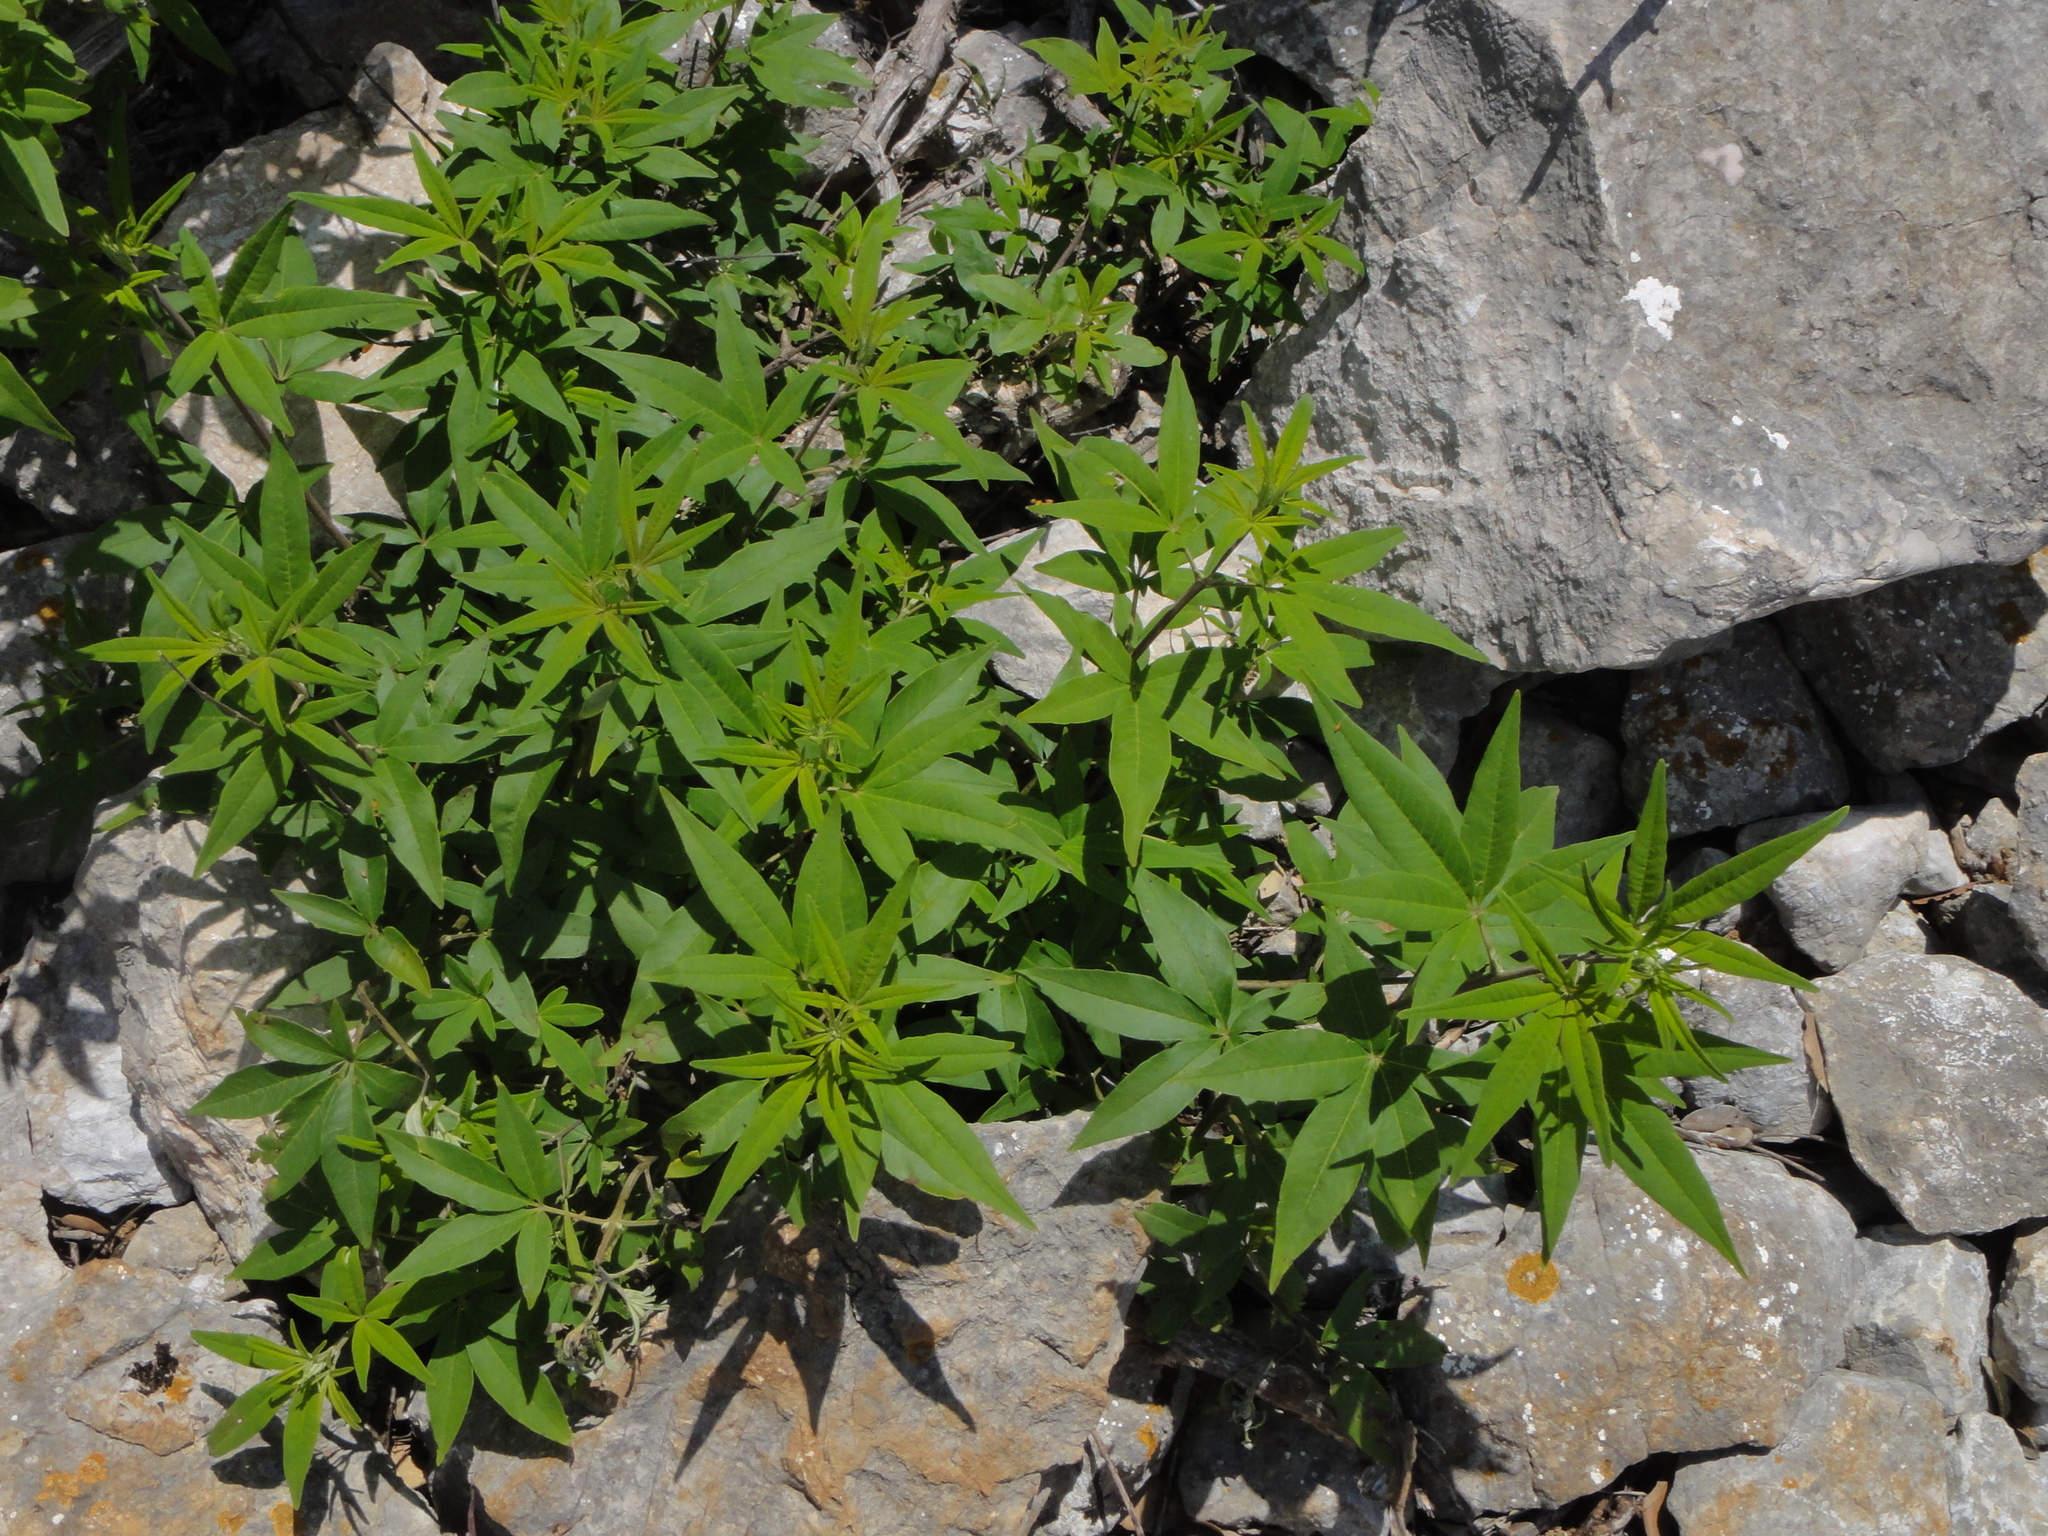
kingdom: Plantae
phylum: Tracheophyta
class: Magnoliopsida
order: Lamiales
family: Lamiaceae
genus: Vitex
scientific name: Vitex agnus-castus
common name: Chasteberry
